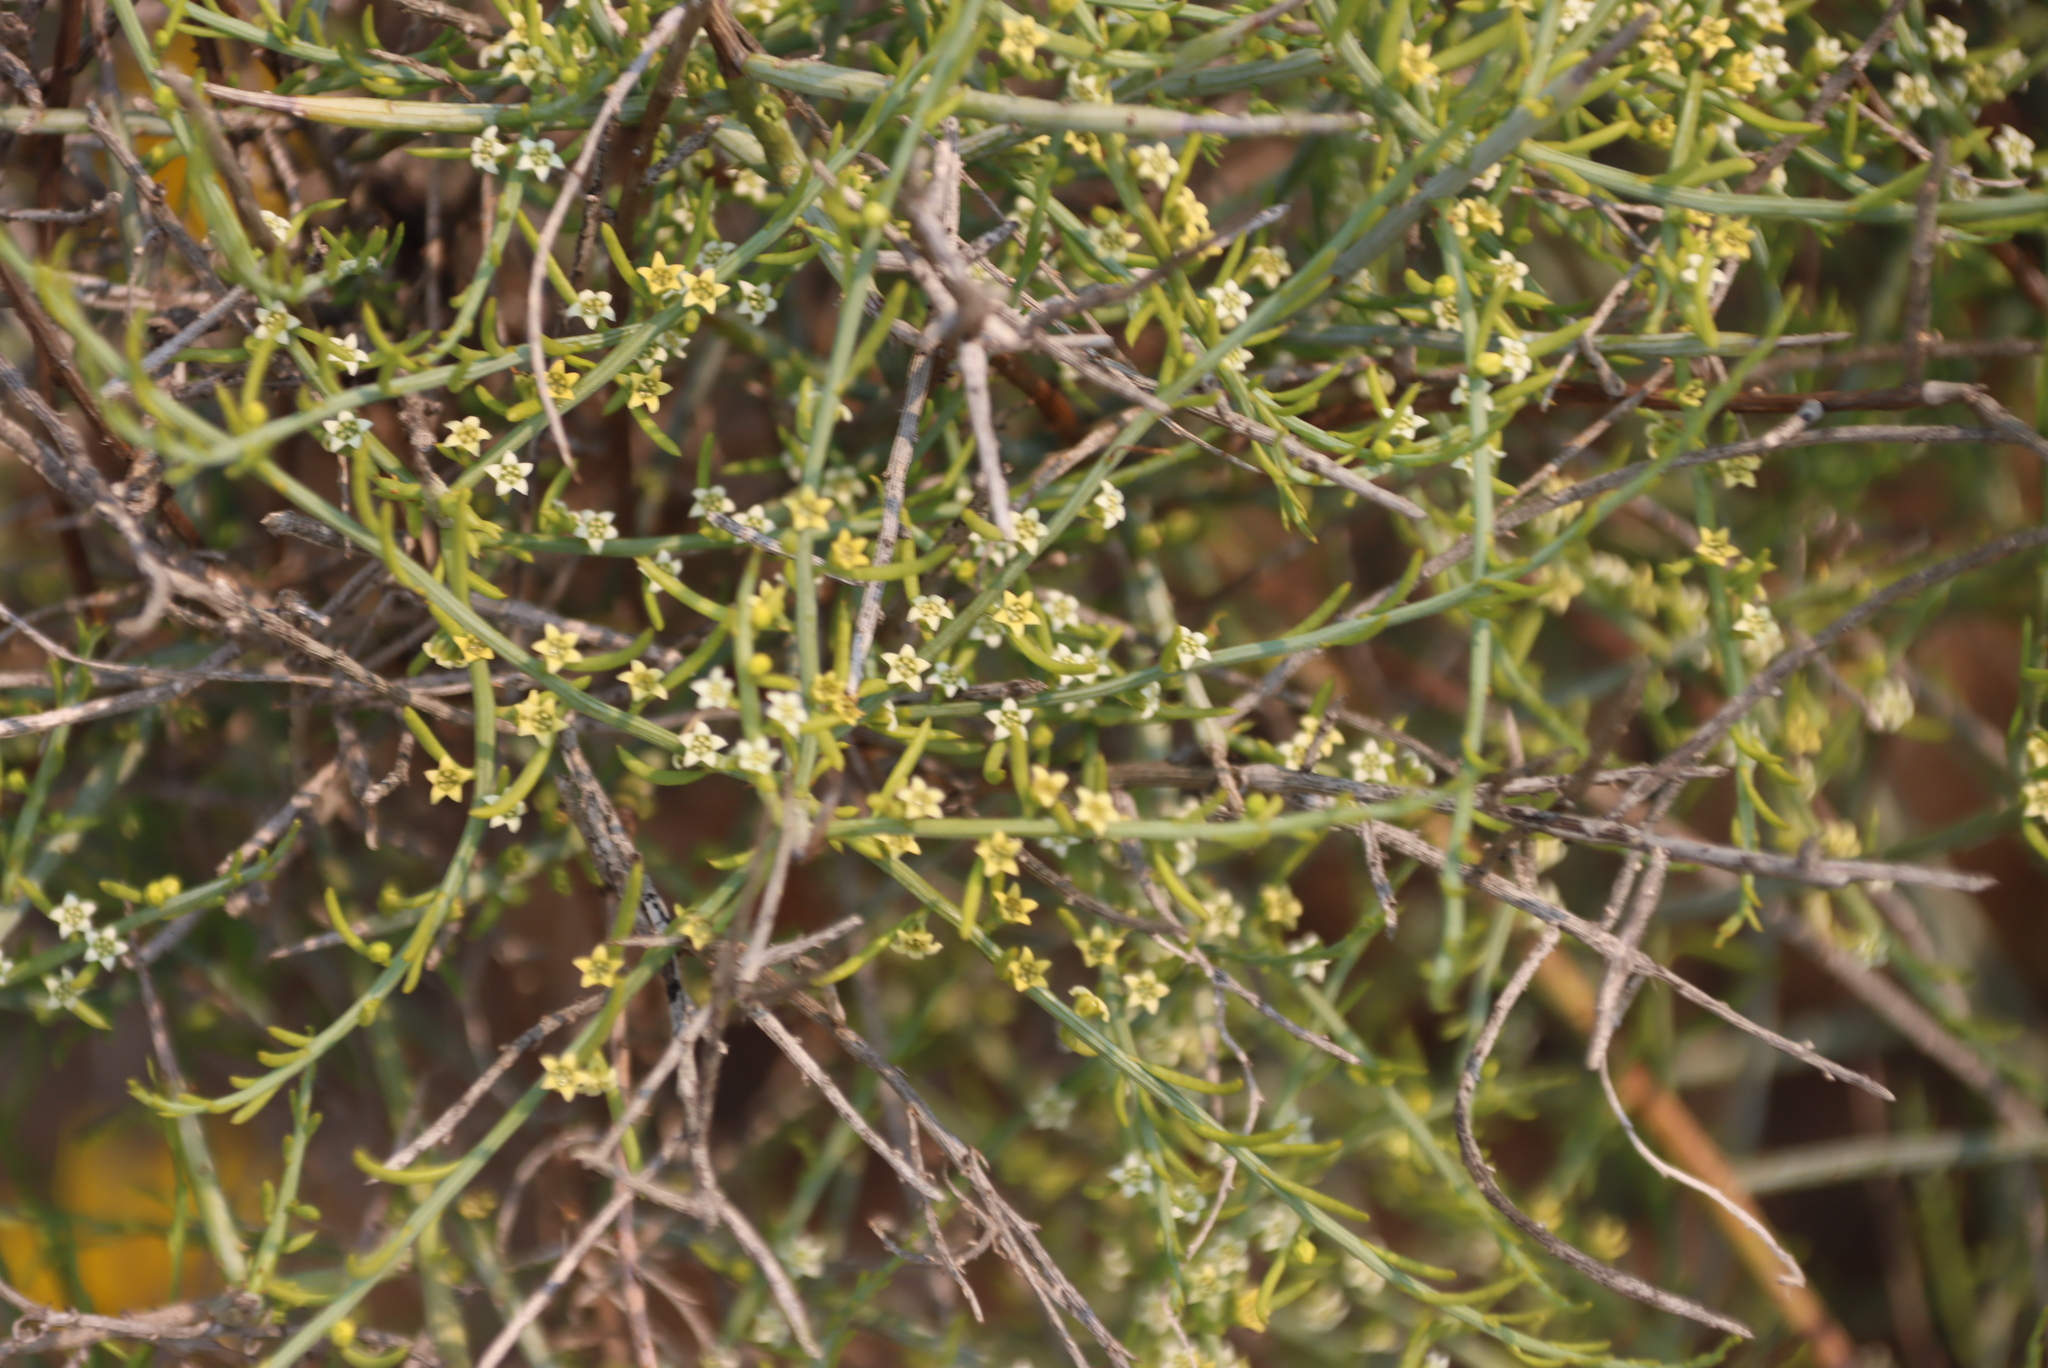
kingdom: Plantae
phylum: Tracheophyta
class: Magnoliopsida
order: Santalales
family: Thesiaceae
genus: Lacomucinaea
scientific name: Lacomucinaea lineata
